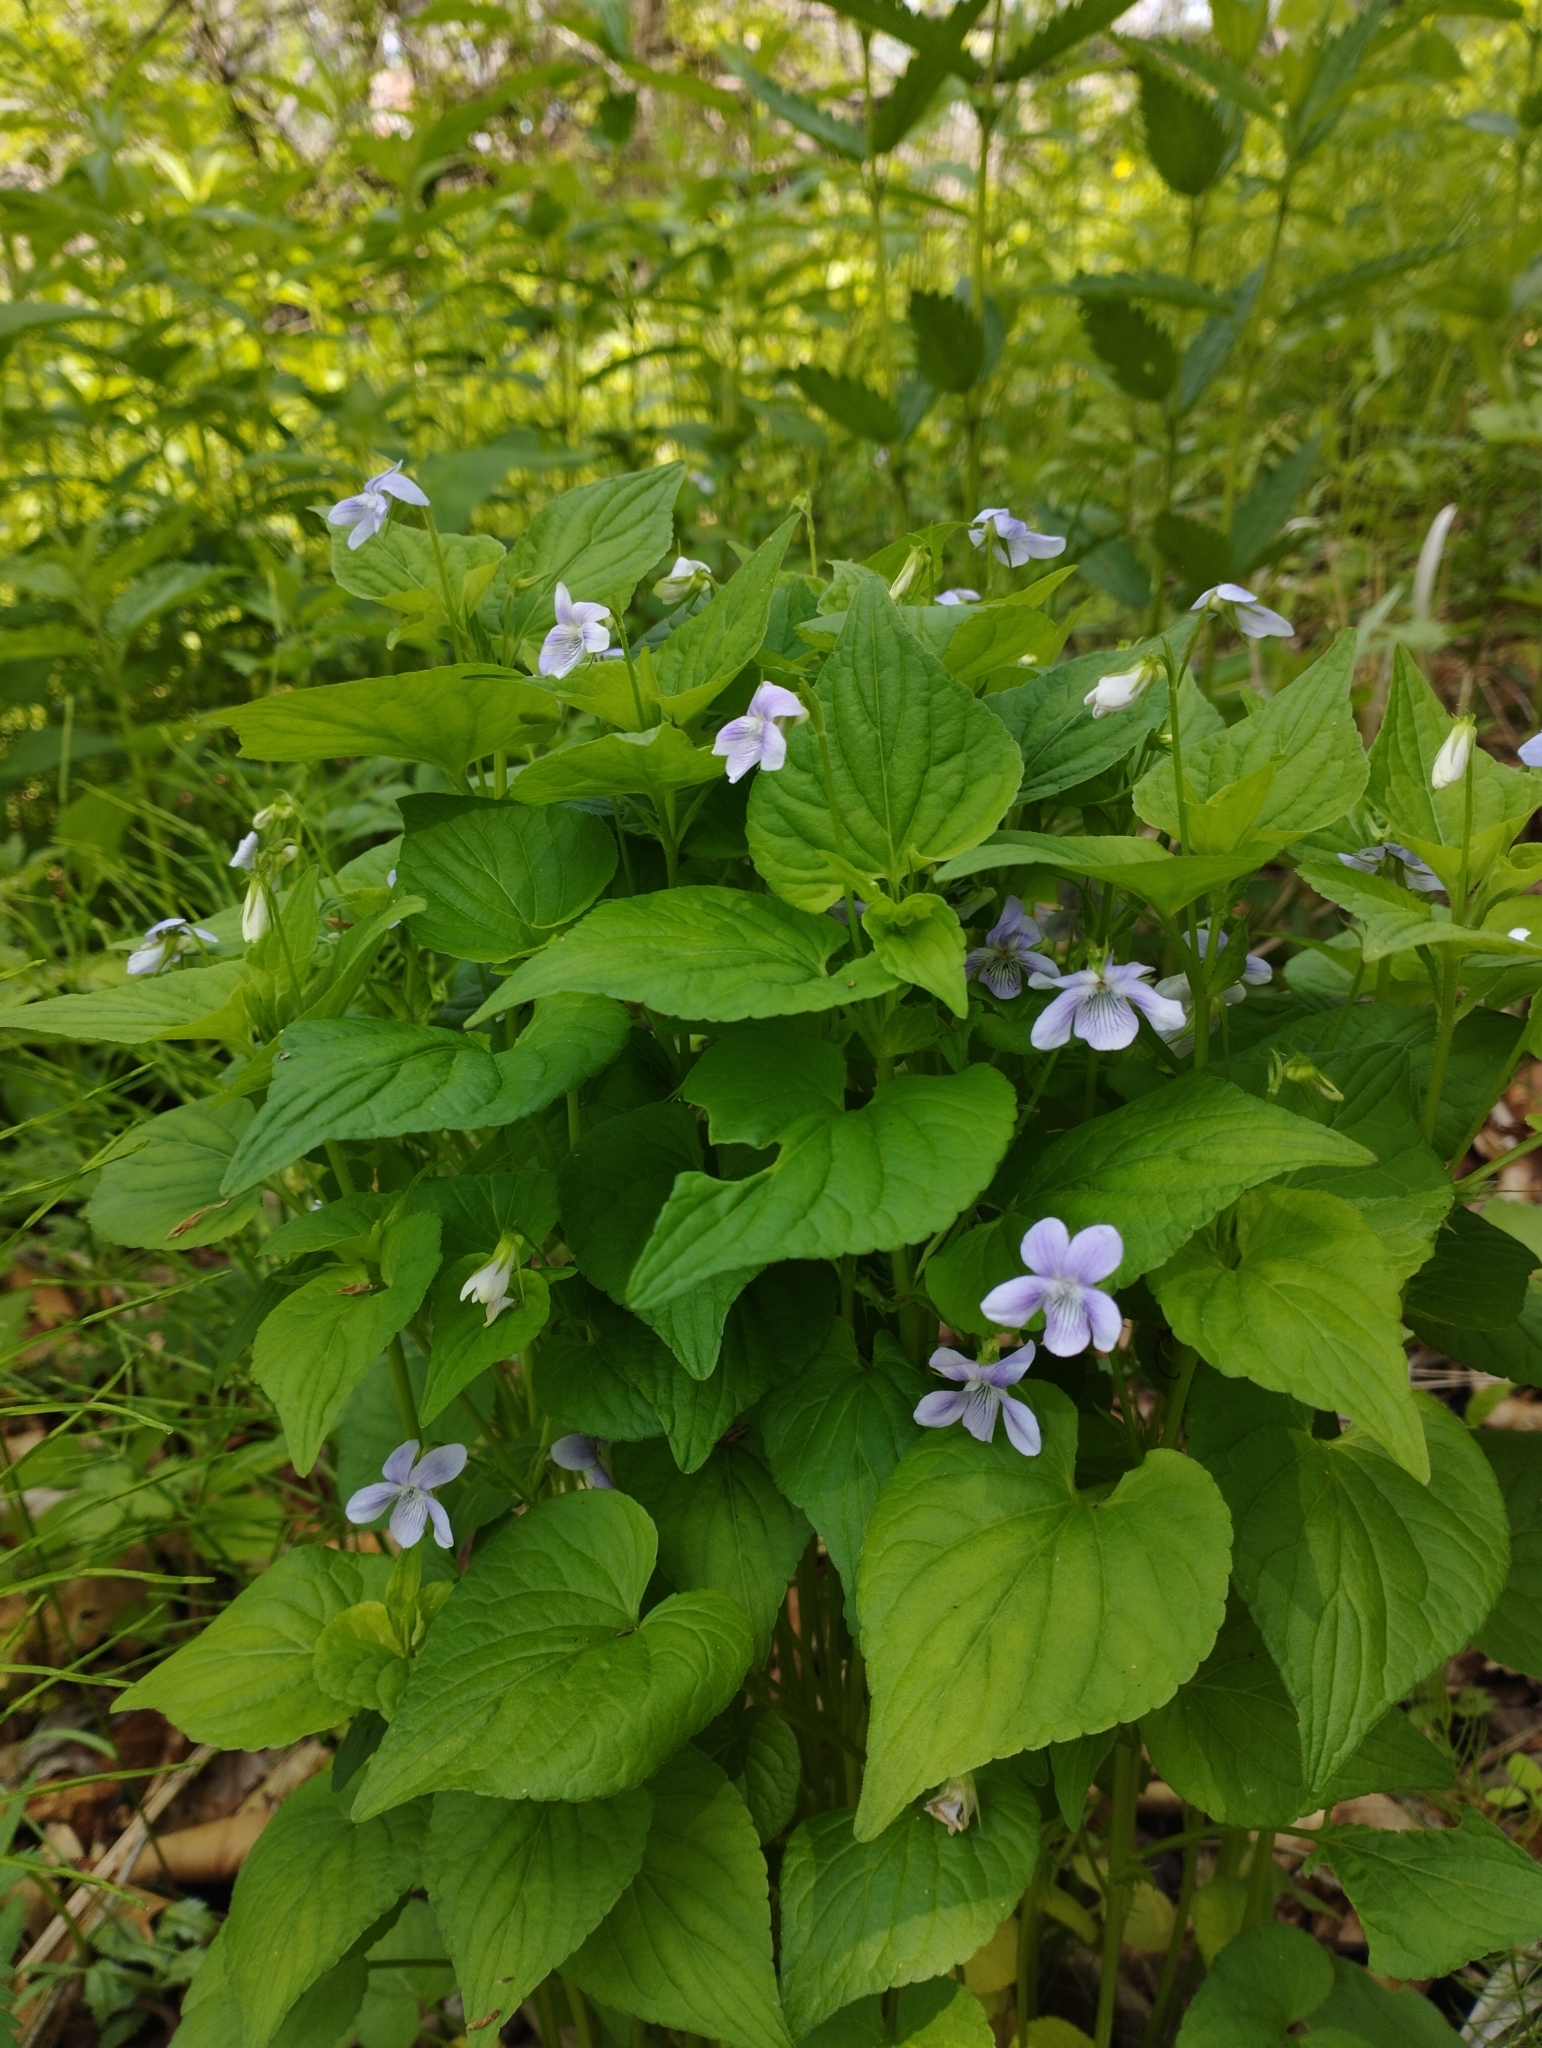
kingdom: Plantae
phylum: Tracheophyta
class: Magnoliopsida
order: Malpighiales
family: Violaceae
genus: Viola
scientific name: Viola acuminata
